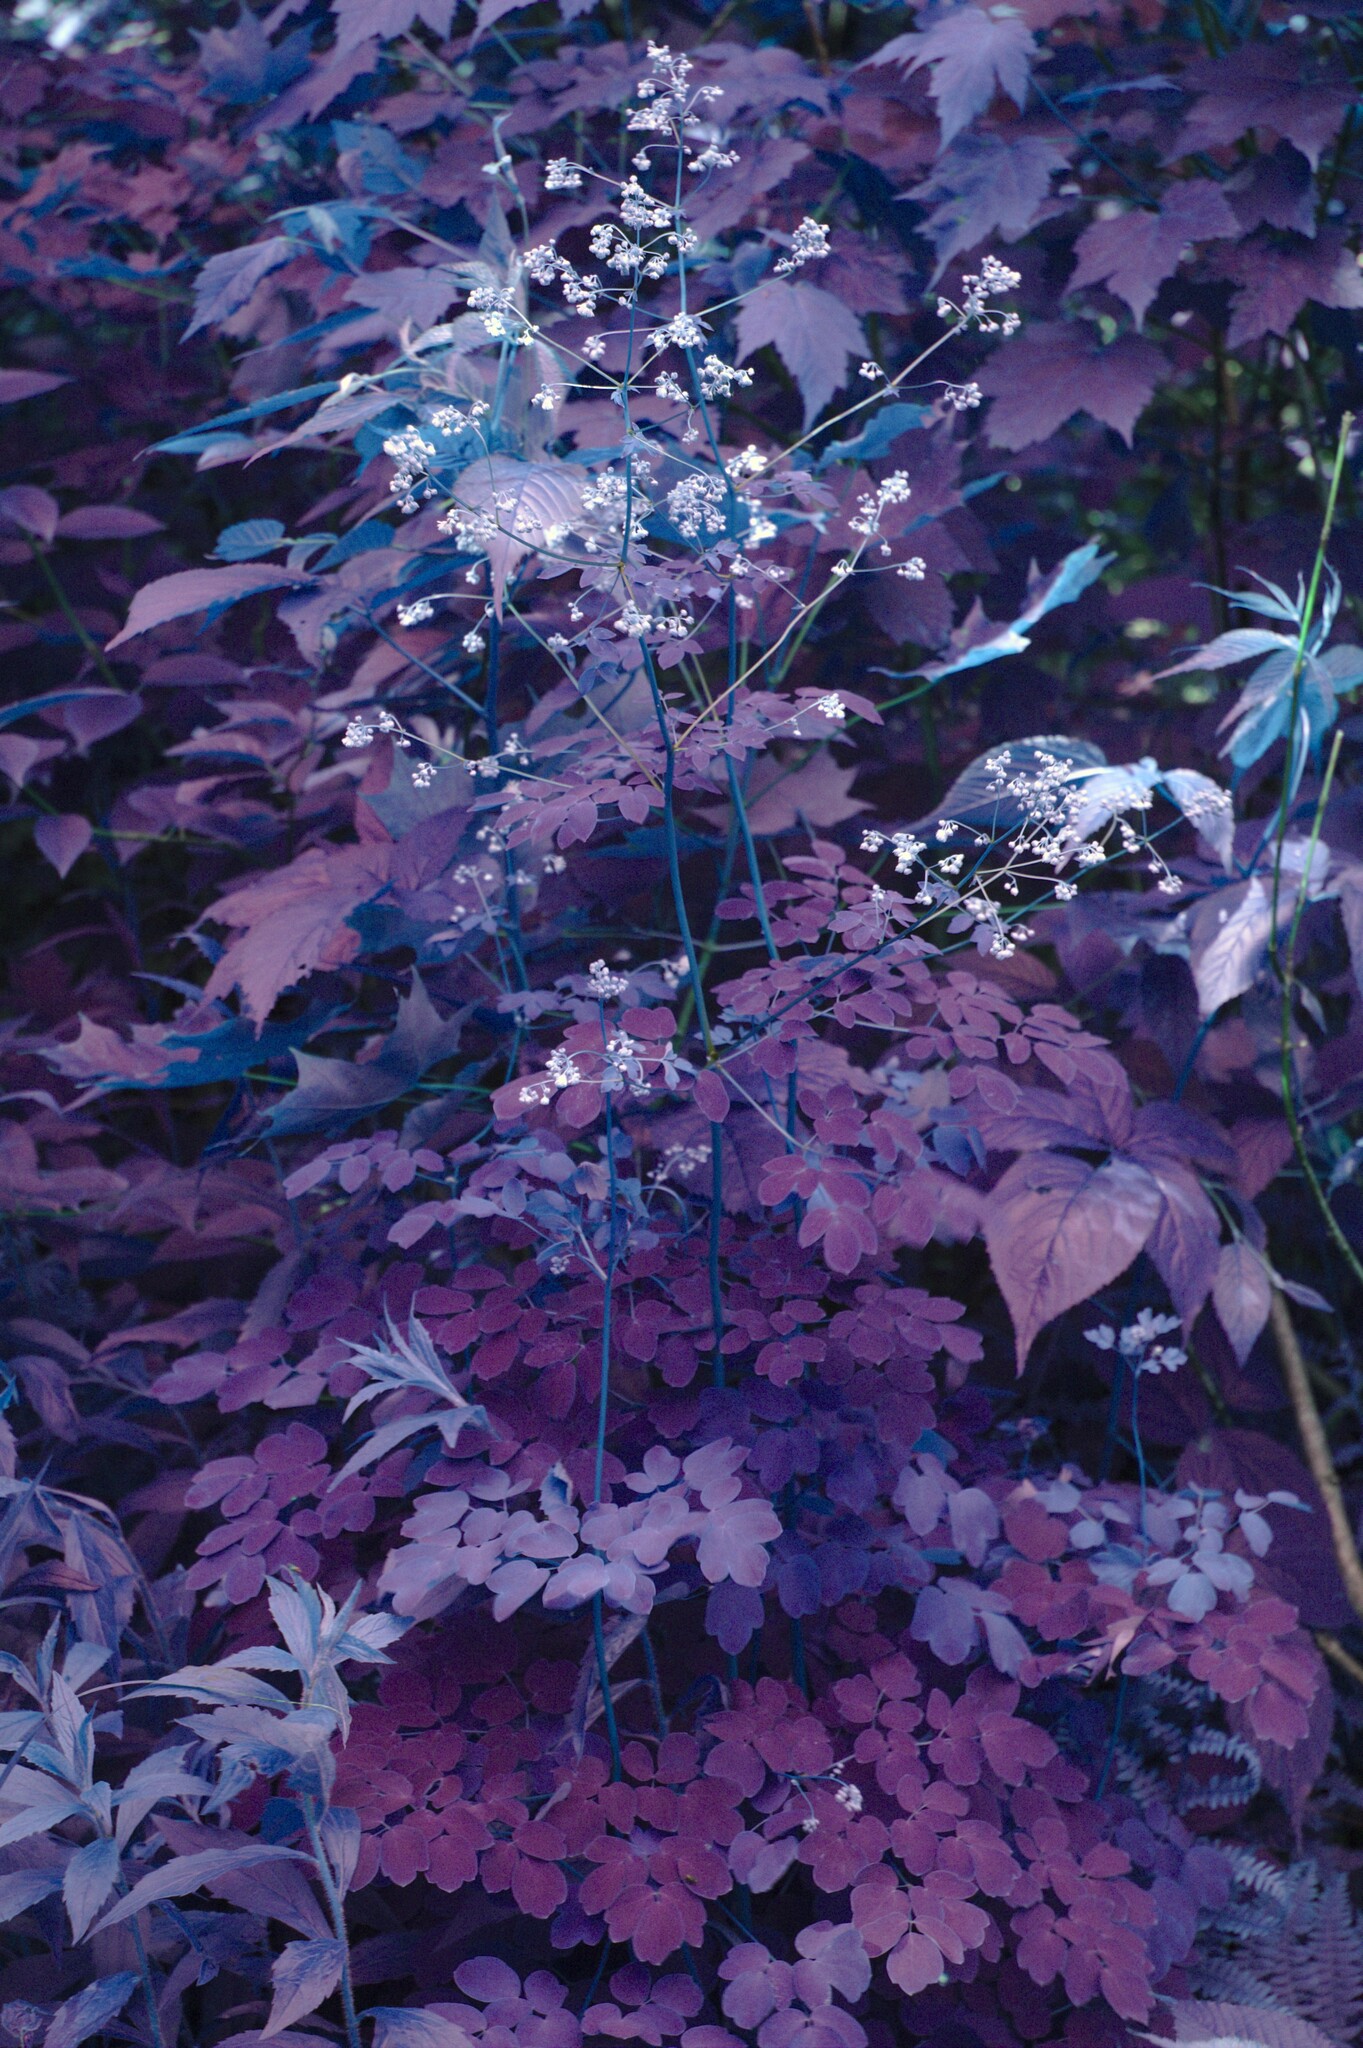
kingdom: Plantae
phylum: Tracheophyta
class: Magnoliopsida
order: Ranunculales
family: Ranunculaceae
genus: Thalictrum
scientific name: Thalictrum pubescens
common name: King-of-the-meadow
